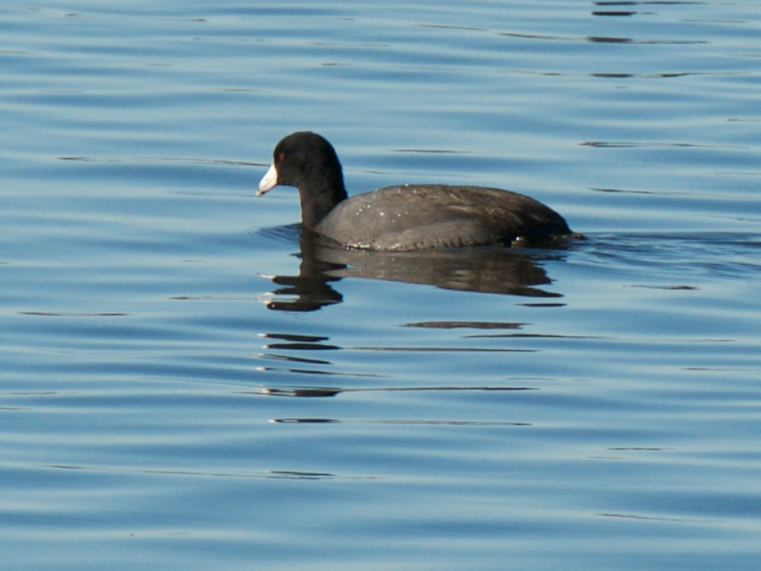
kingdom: Animalia
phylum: Chordata
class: Aves
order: Gruiformes
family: Rallidae
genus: Fulica
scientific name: Fulica americana
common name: American coot
